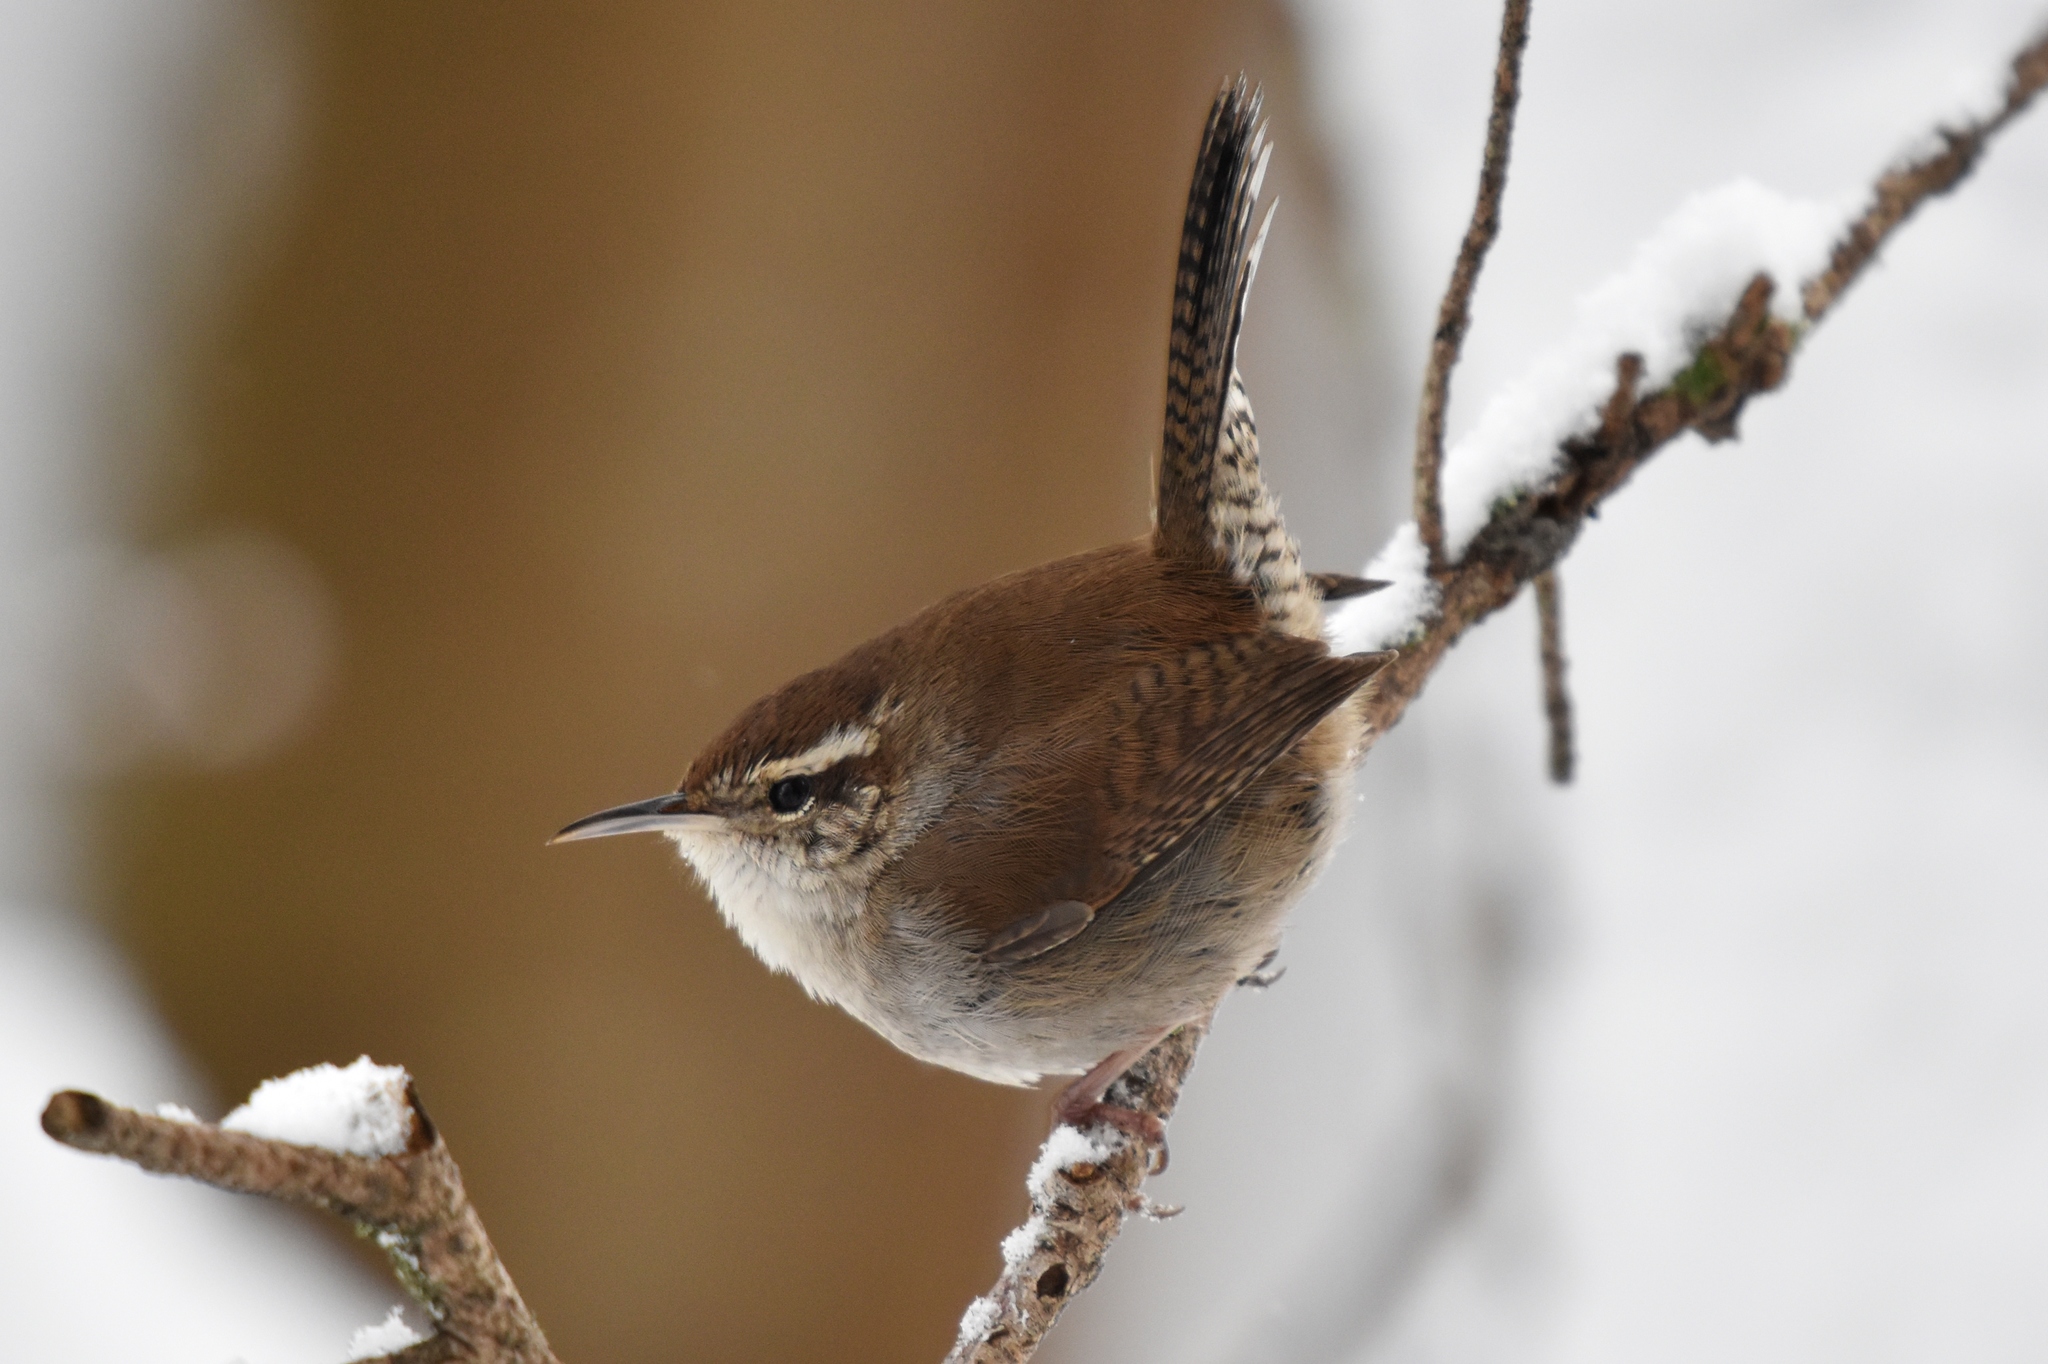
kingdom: Animalia
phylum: Chordata
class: Aves
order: Passeriformes
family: Troglodytidae
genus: Thryomanes
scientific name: Thryomanes bewickii
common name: Bewick's wren
